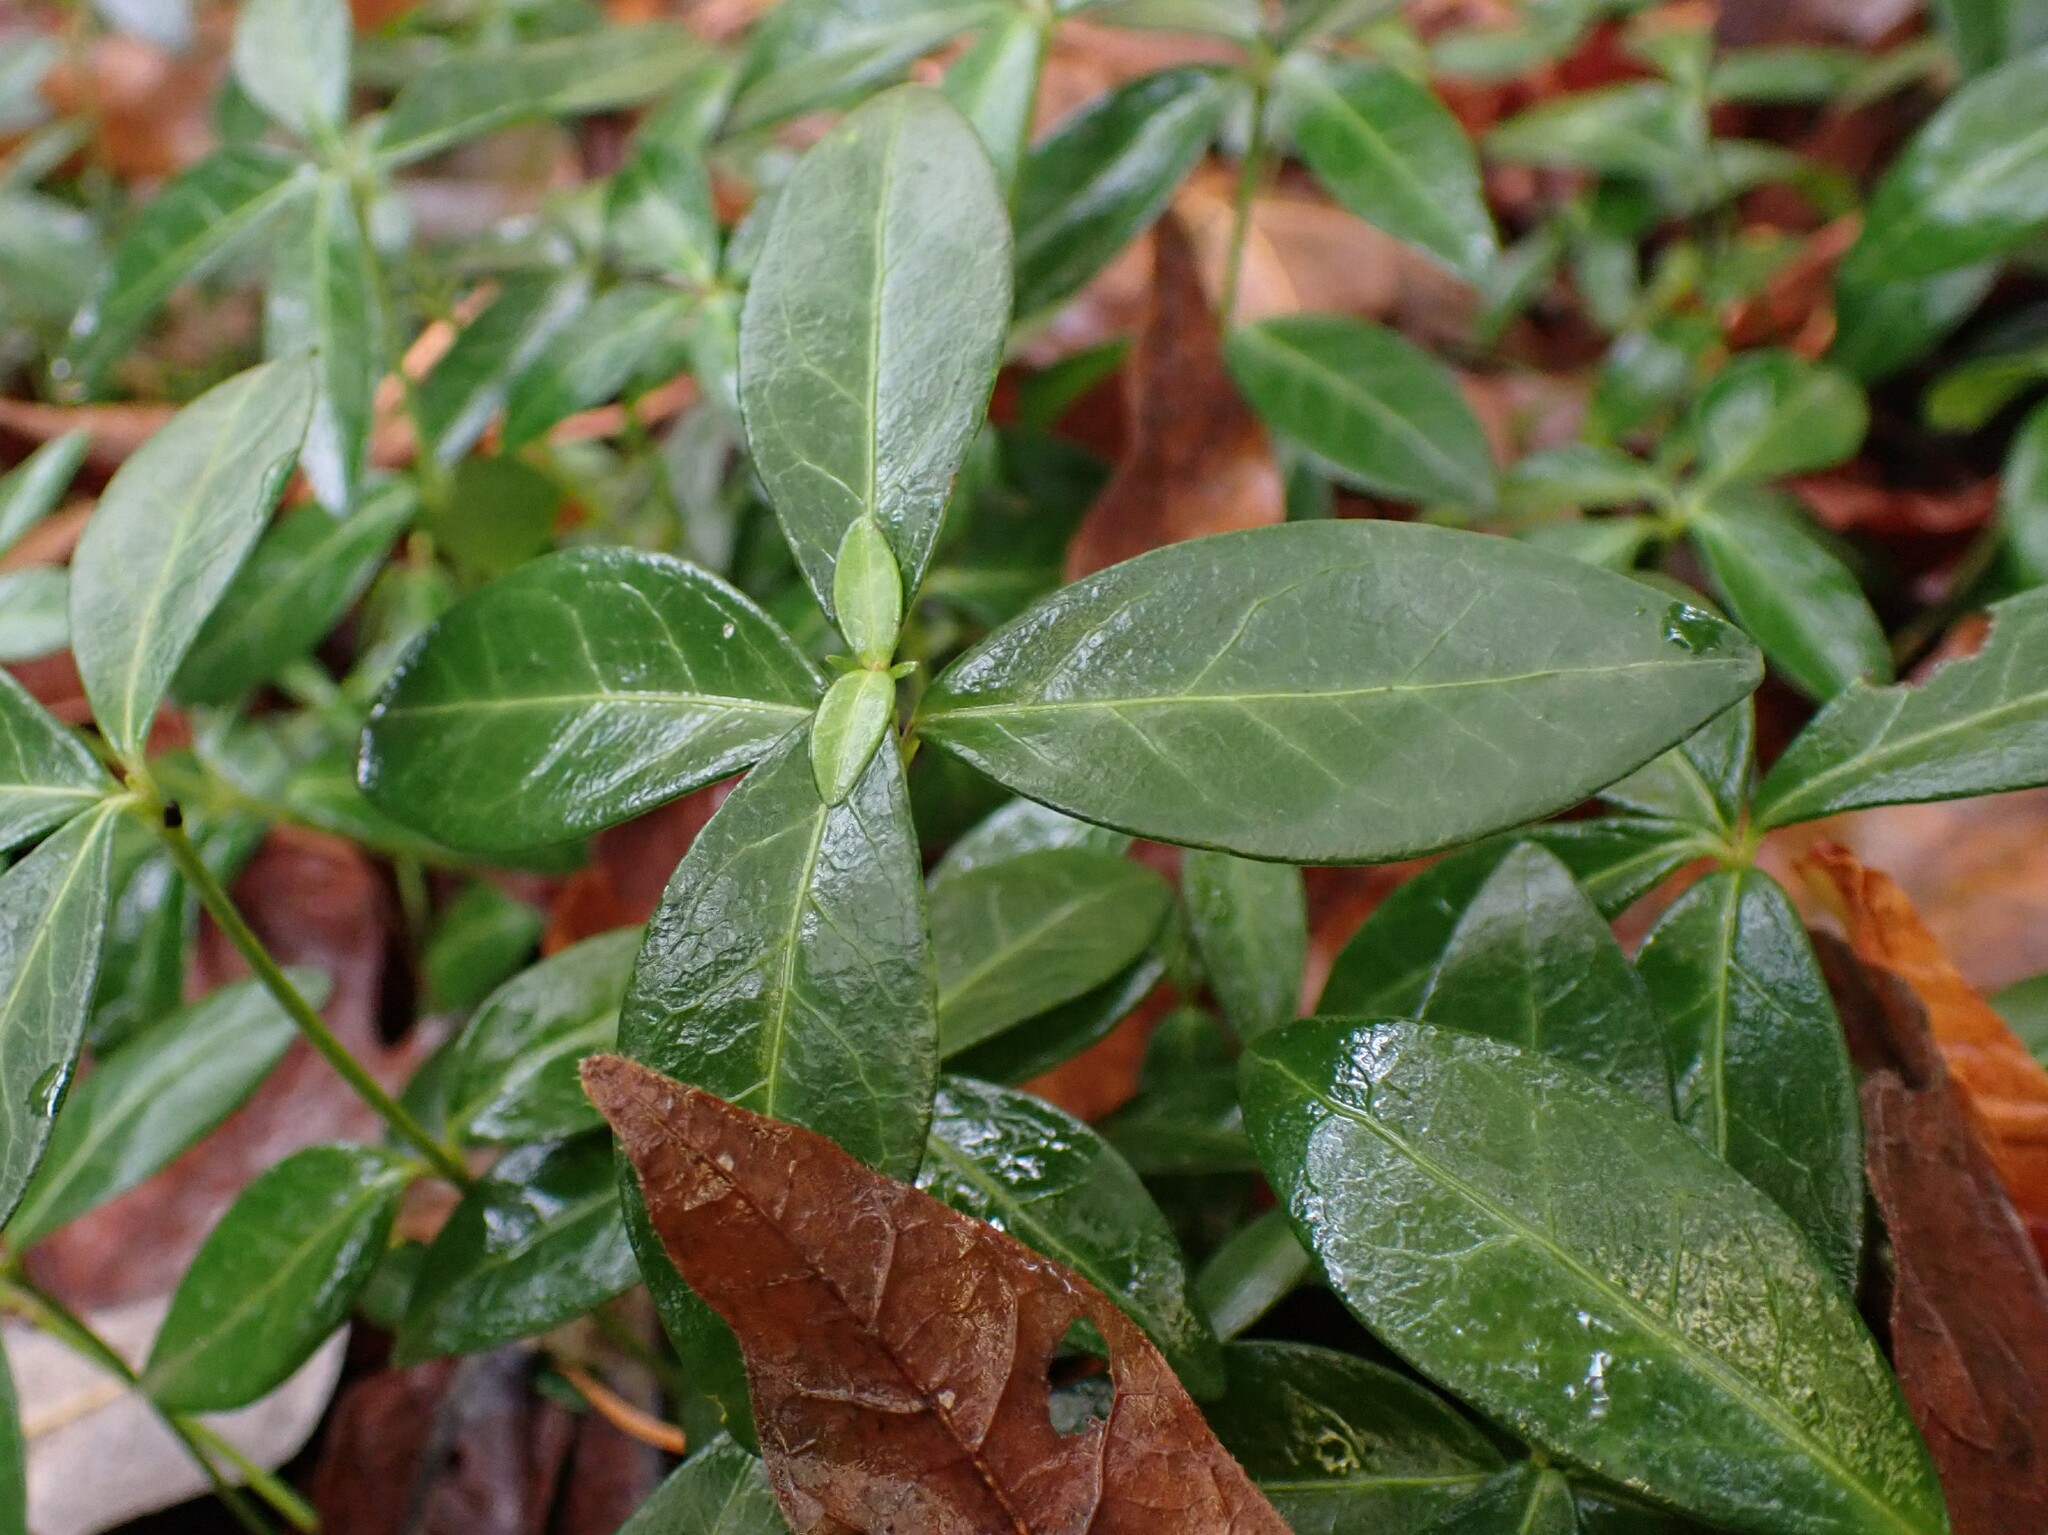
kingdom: Plantae
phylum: Tracheophyta
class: Magnoliopsida
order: Gentianales
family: Apocynaceae
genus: Vinca
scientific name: Vinca minor
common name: Lesser periwinkle
